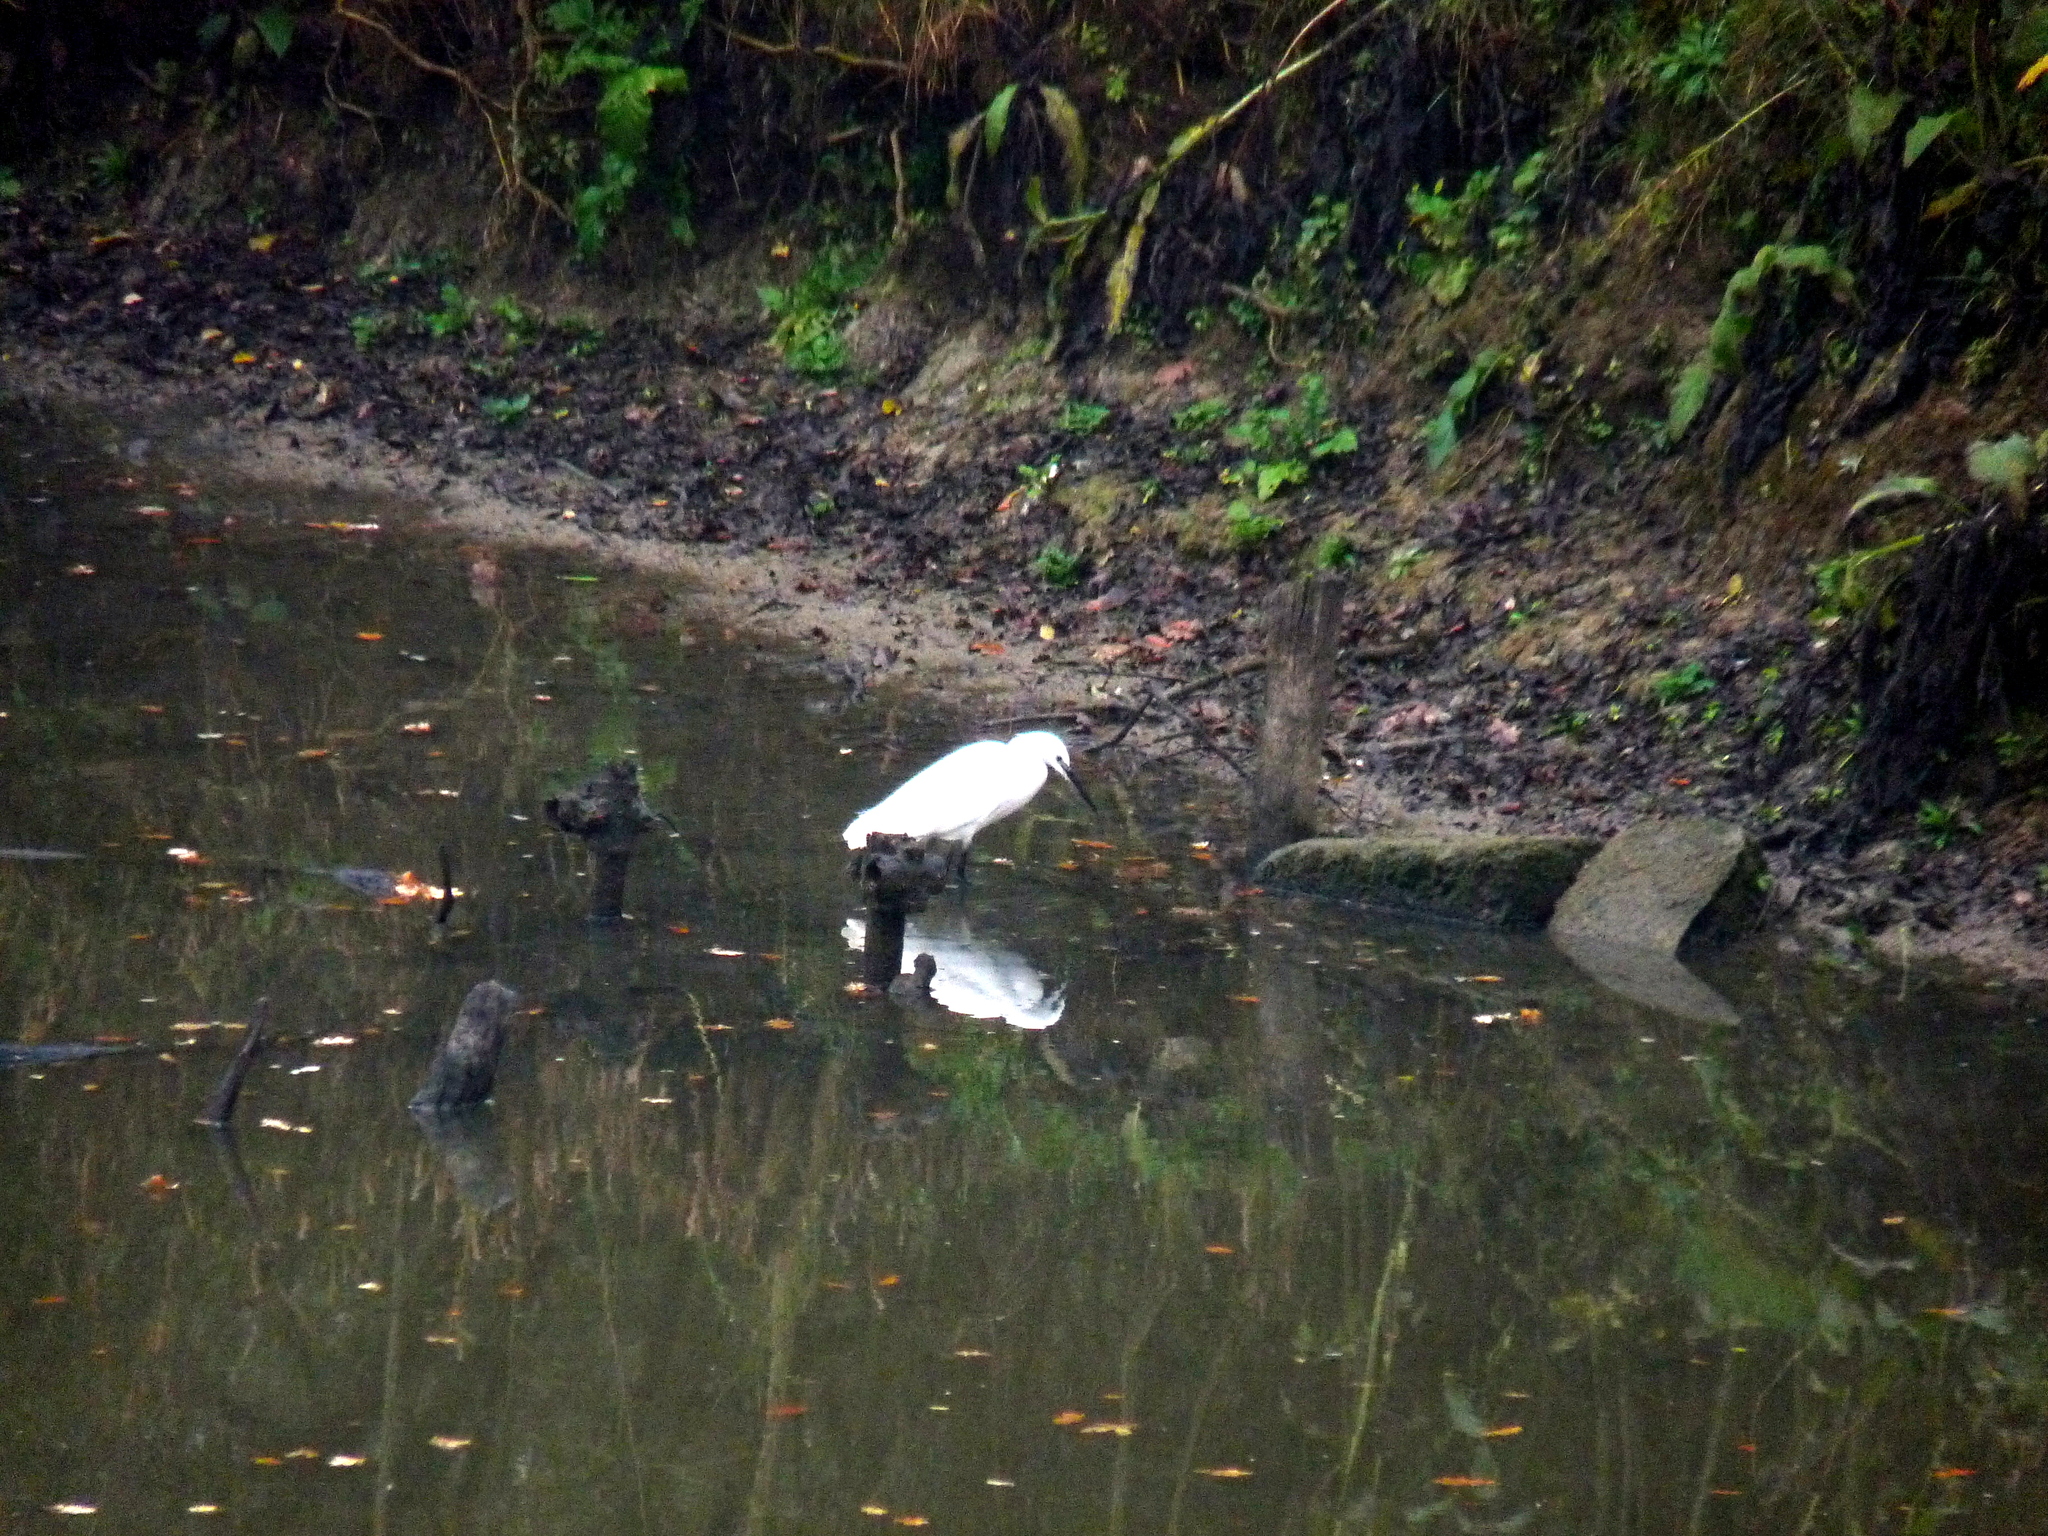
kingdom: Animalia
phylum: Chordata
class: Aves
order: Pelecaniformes
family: Ardeidae
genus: Egretta
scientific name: Egretta garzetta
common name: Little egret
